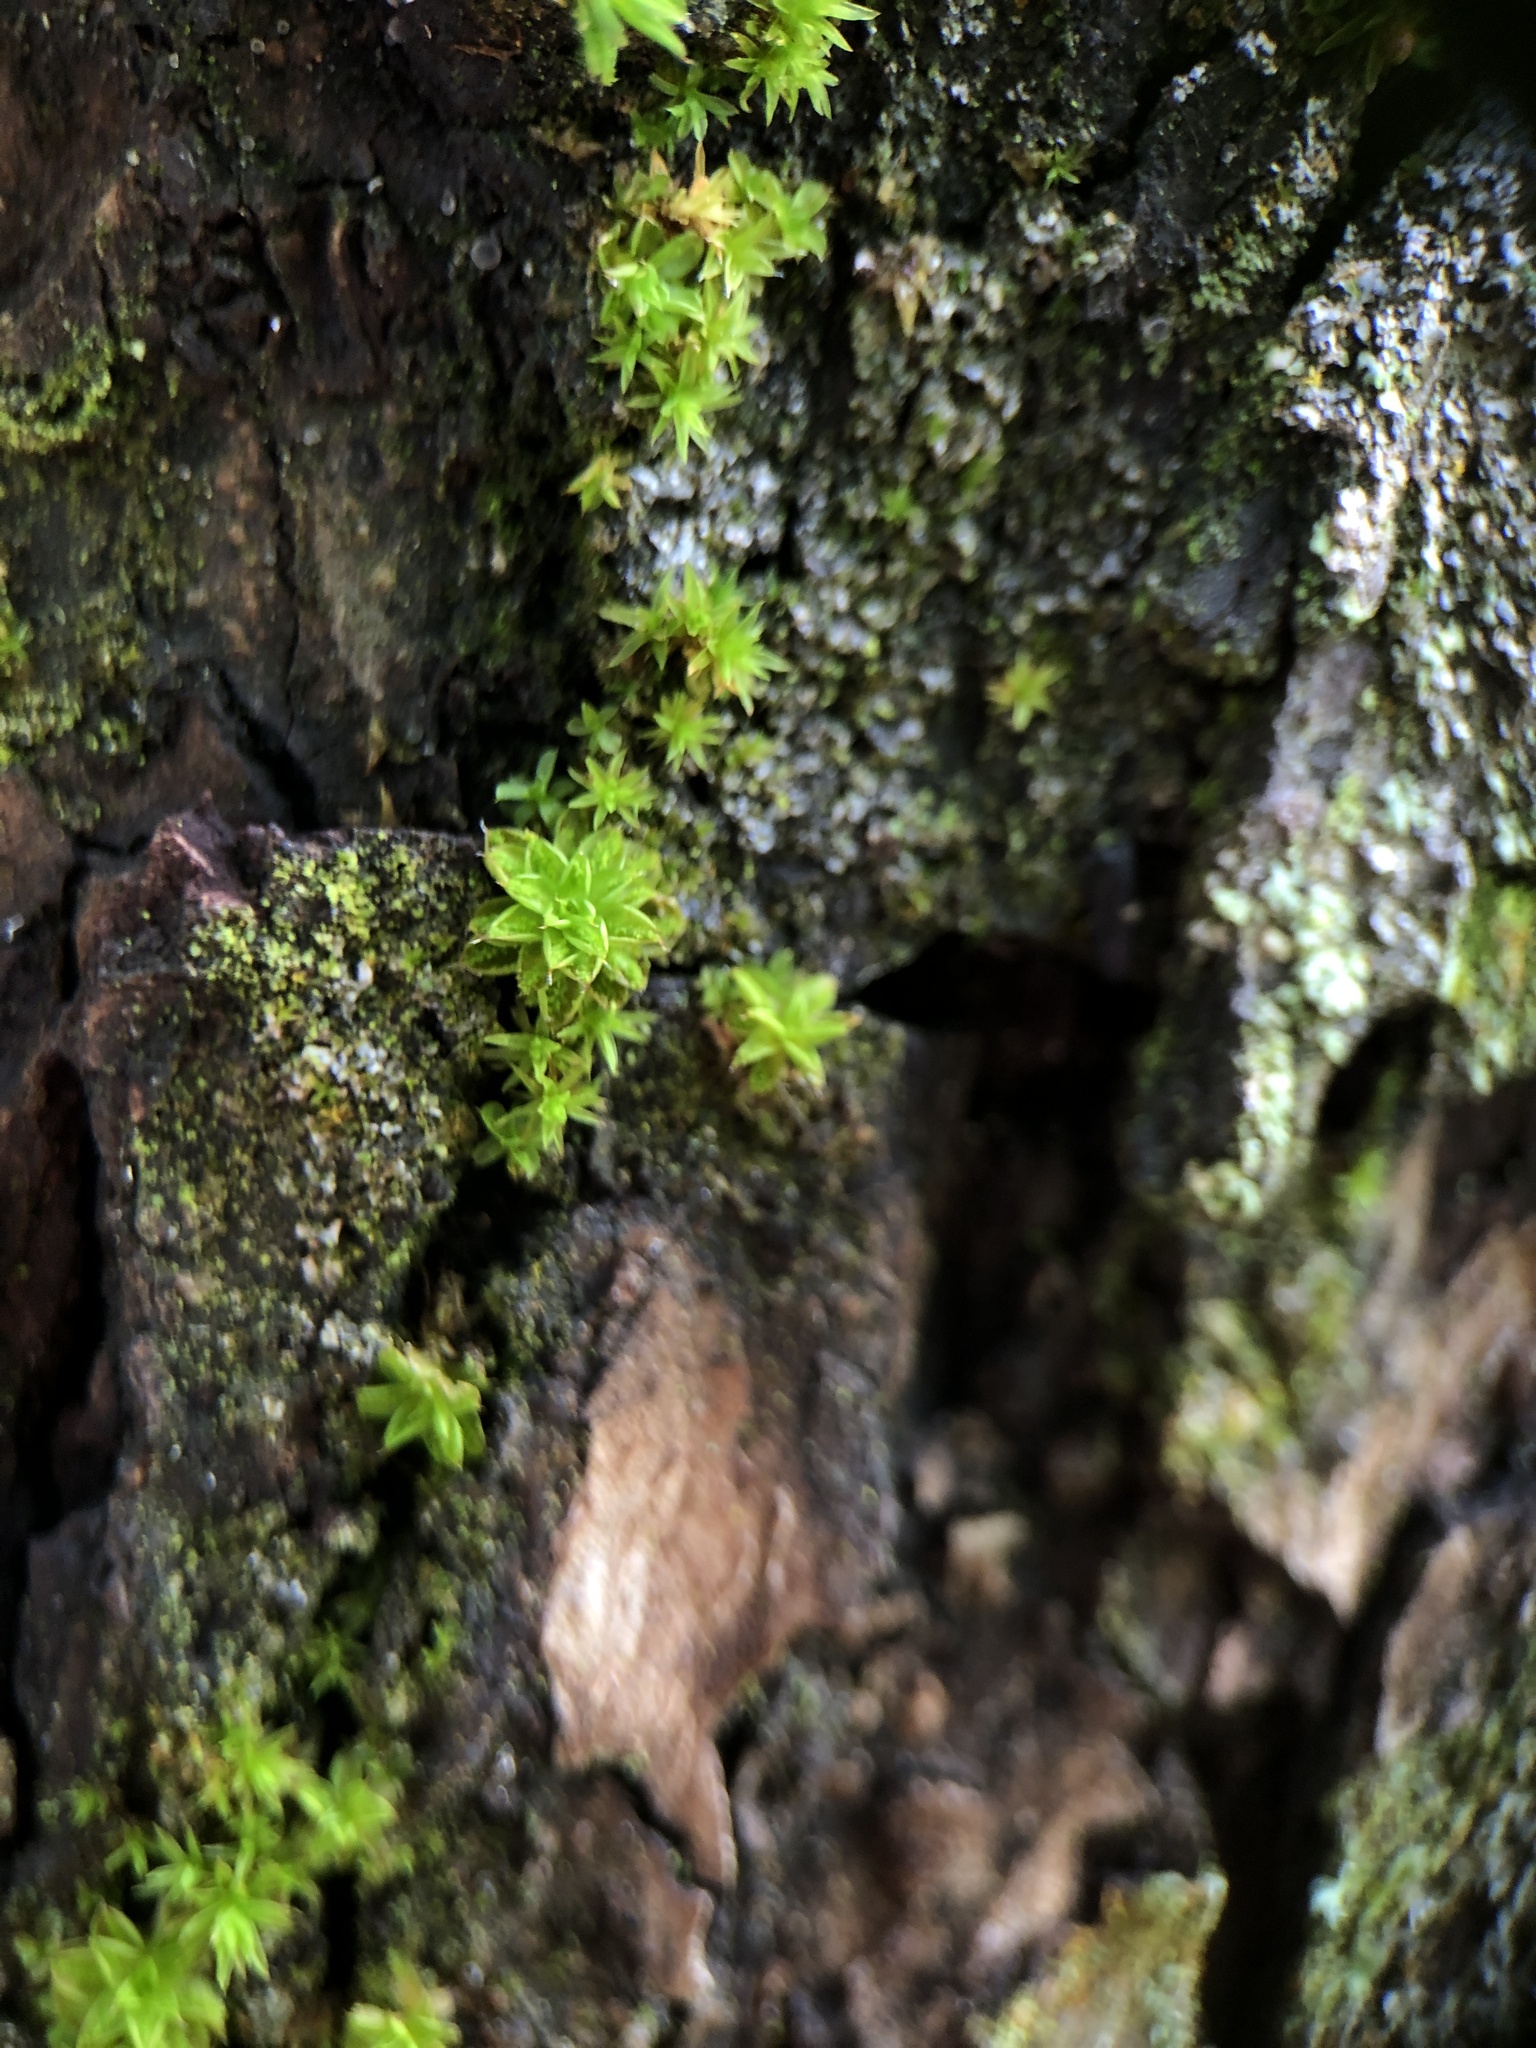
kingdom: Plantae
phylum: Bryophyta
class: Bryopsida
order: Pottiales
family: Pottiaceae
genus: Syntrichia
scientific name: Syntrichia papillosa
